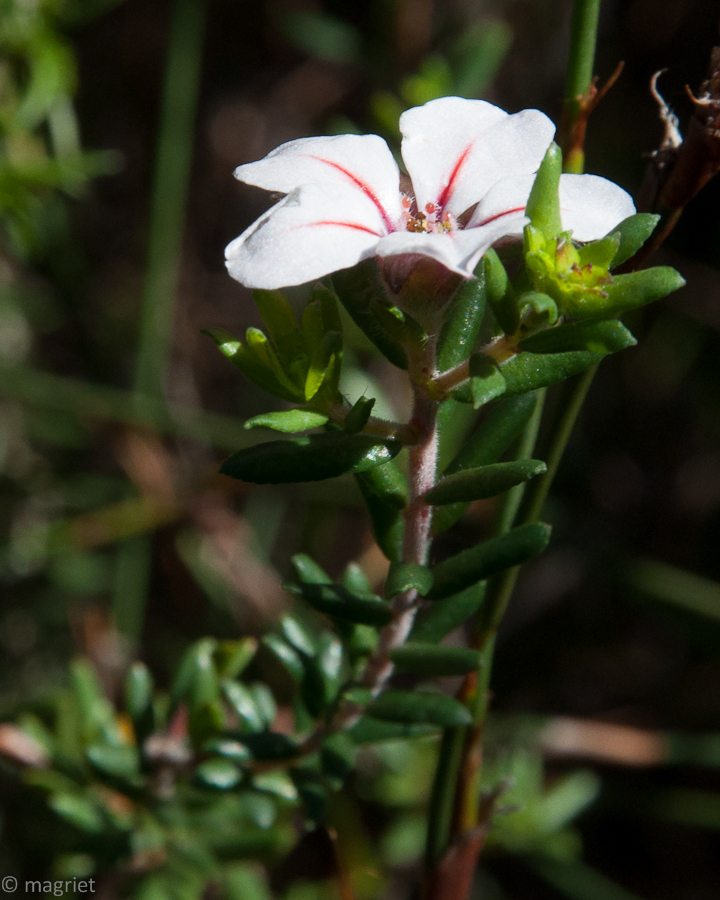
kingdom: Plantae
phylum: Tracheophyta
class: Magnoliopsida
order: Sapindales
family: Rutaceae
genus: Adenandra
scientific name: Adenandra uniflora
